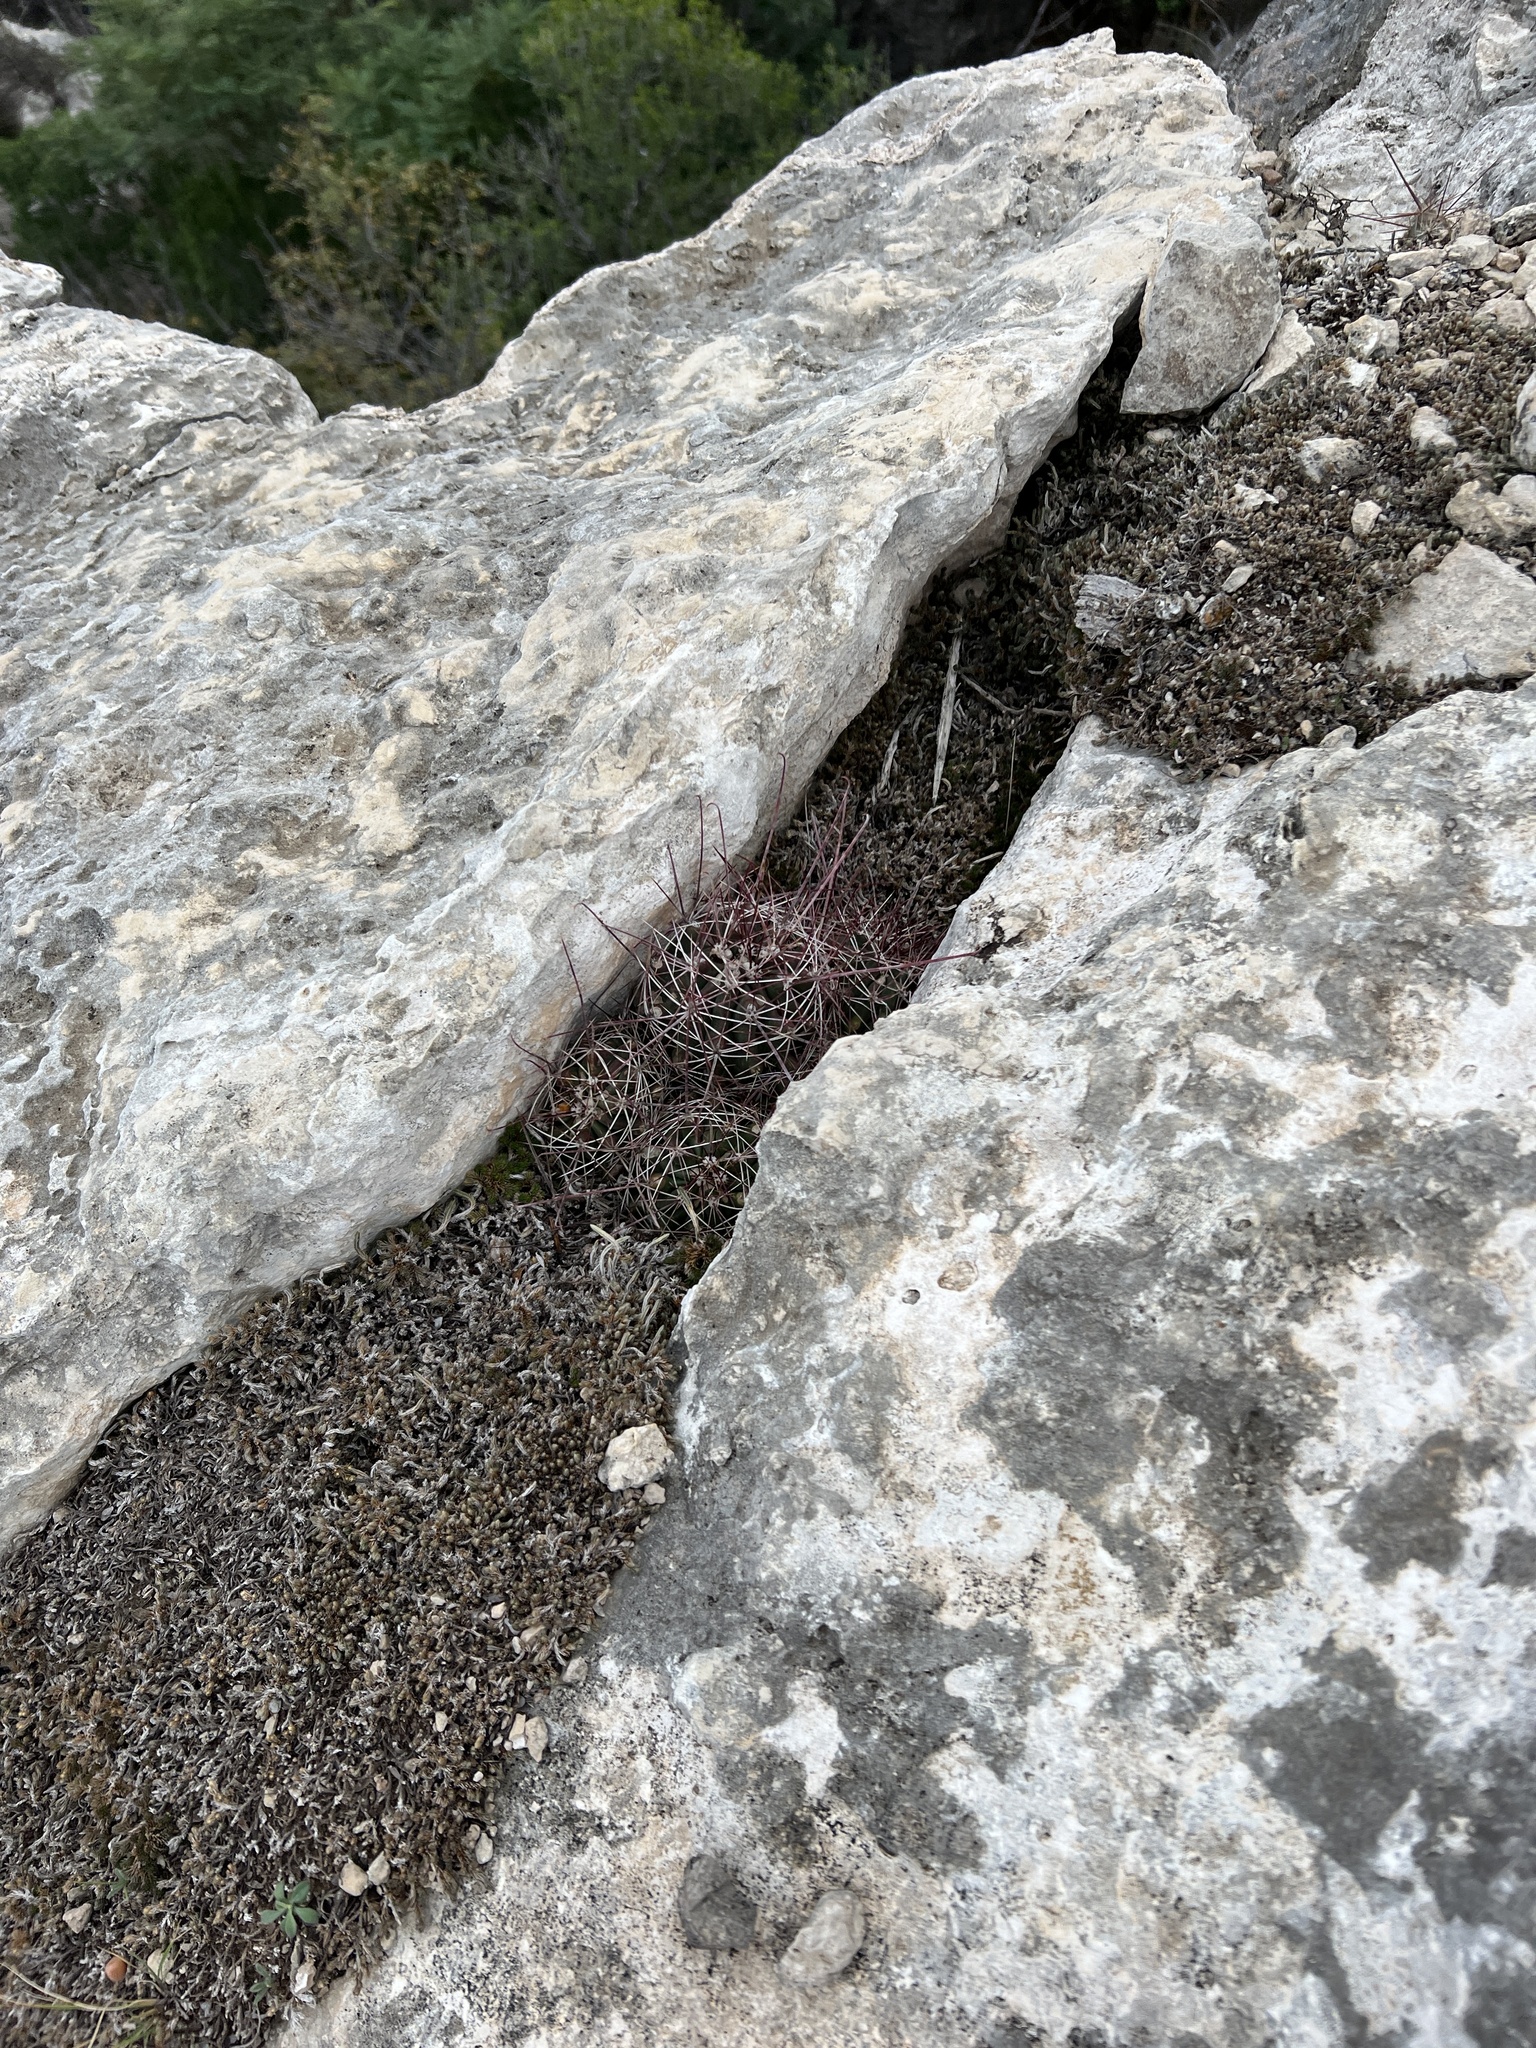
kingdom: Plantae
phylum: Tracheophyta
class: Magnoliopsida
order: Caryophyllales
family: Cactaceae
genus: Bisnaga
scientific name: Bisnaga hamatacantha
